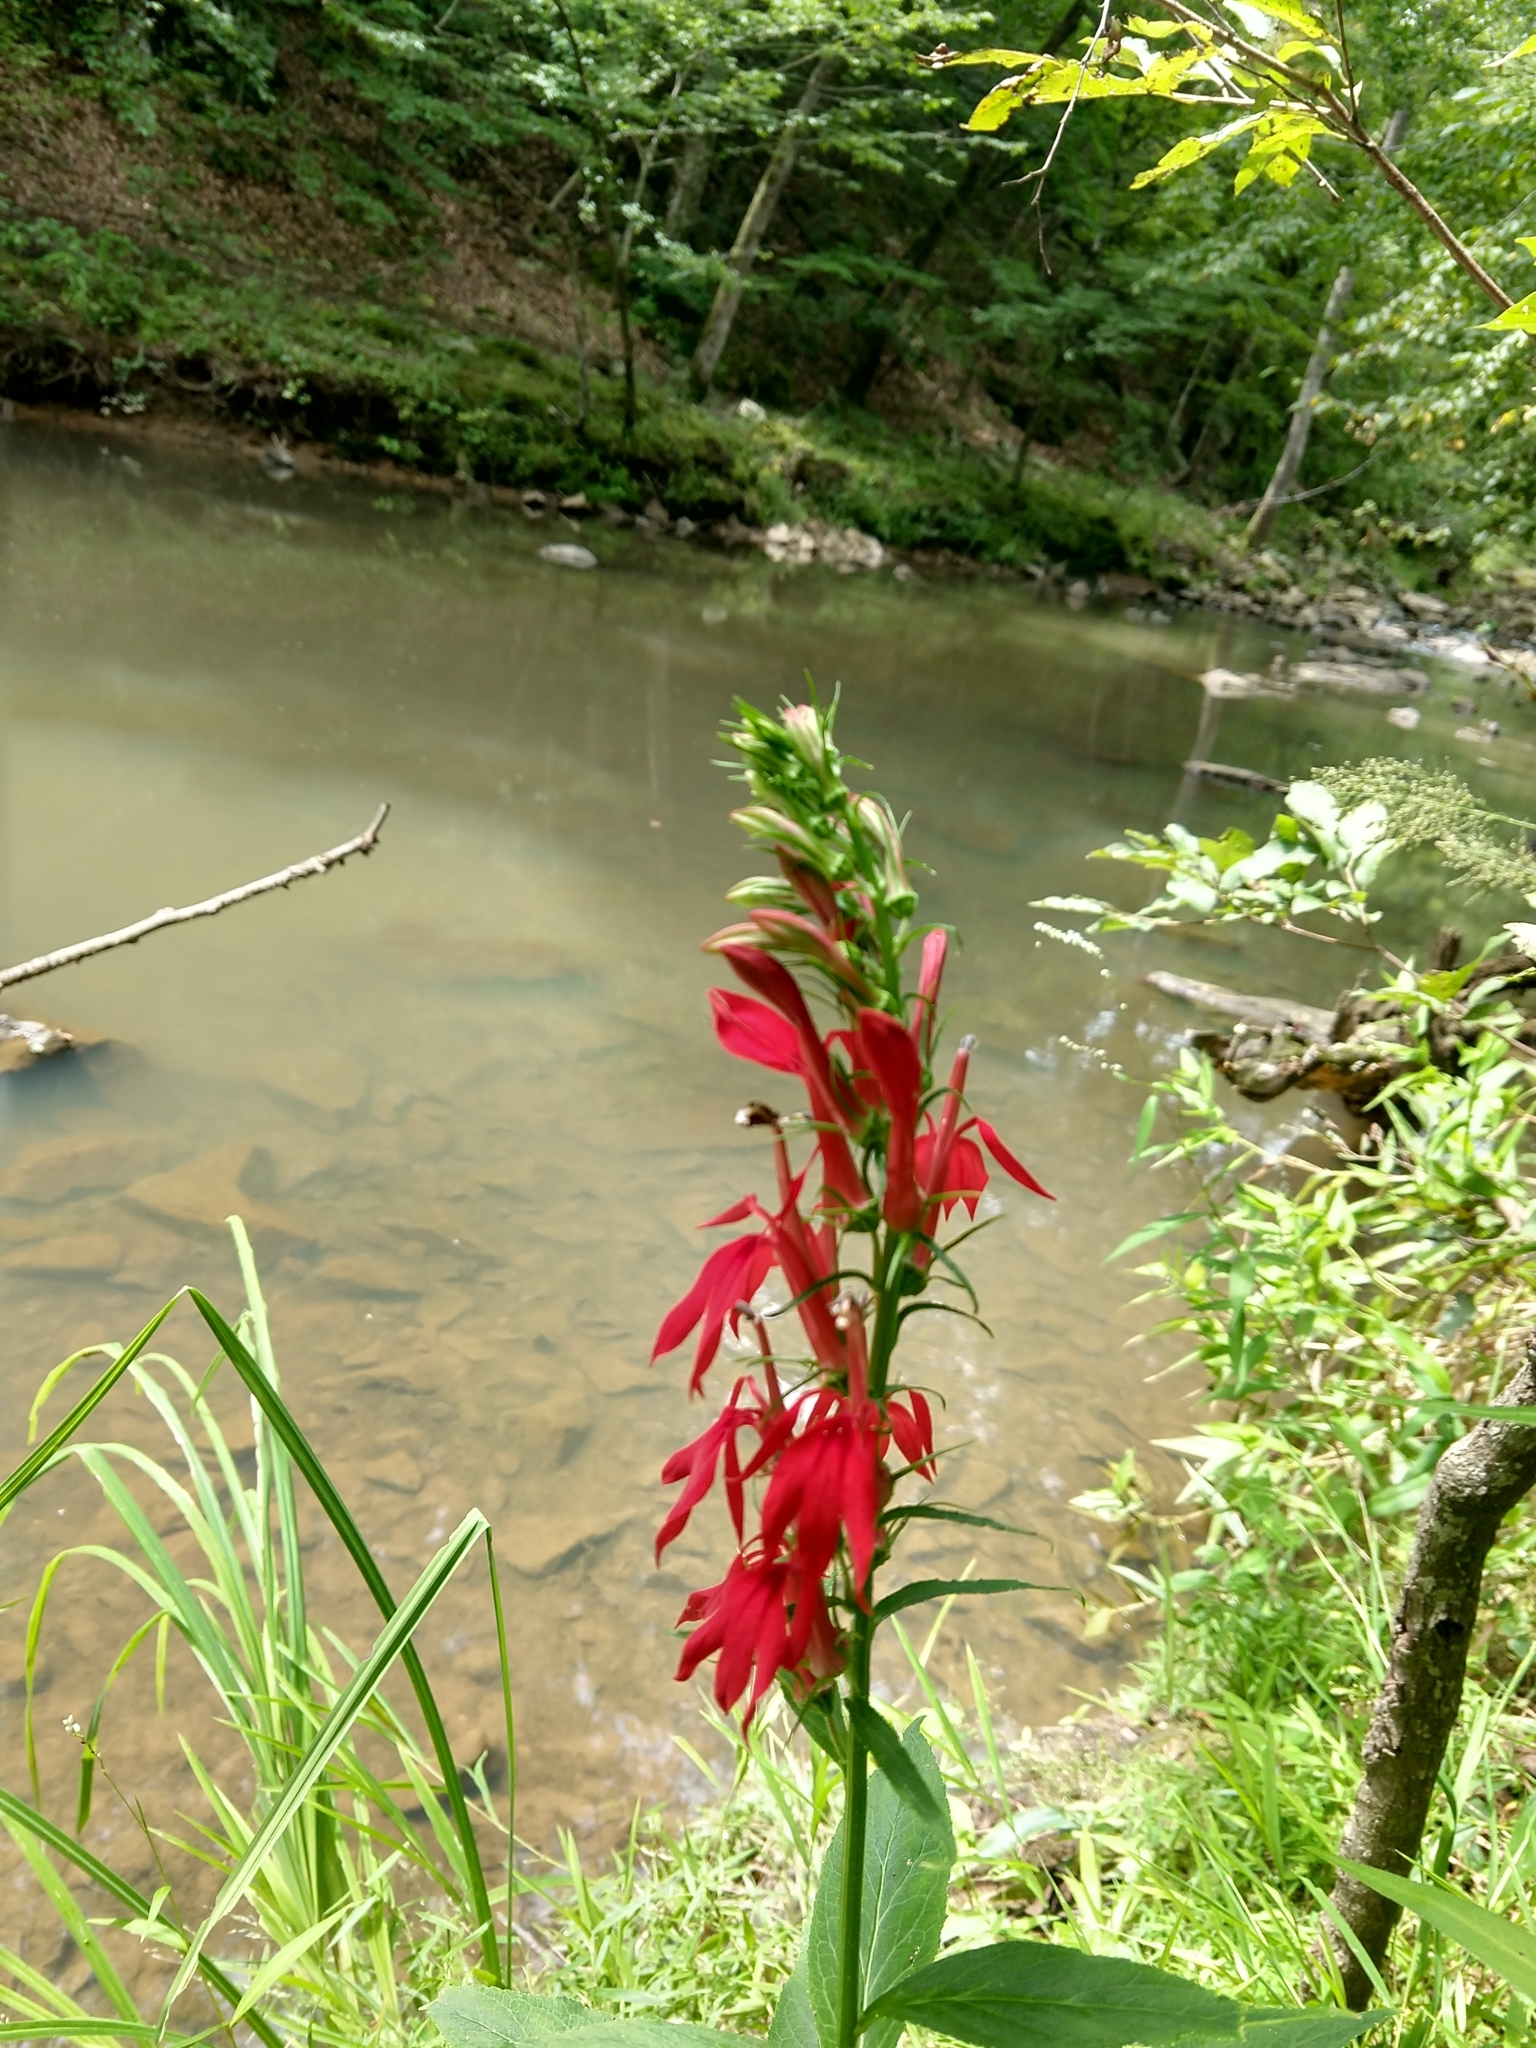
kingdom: Plantae
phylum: Tracheophyta
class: Magnoliopsida
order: Asterales
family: Campanulaceae
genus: Lobelia
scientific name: Lobelia cardinalis
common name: Cardinal flower
